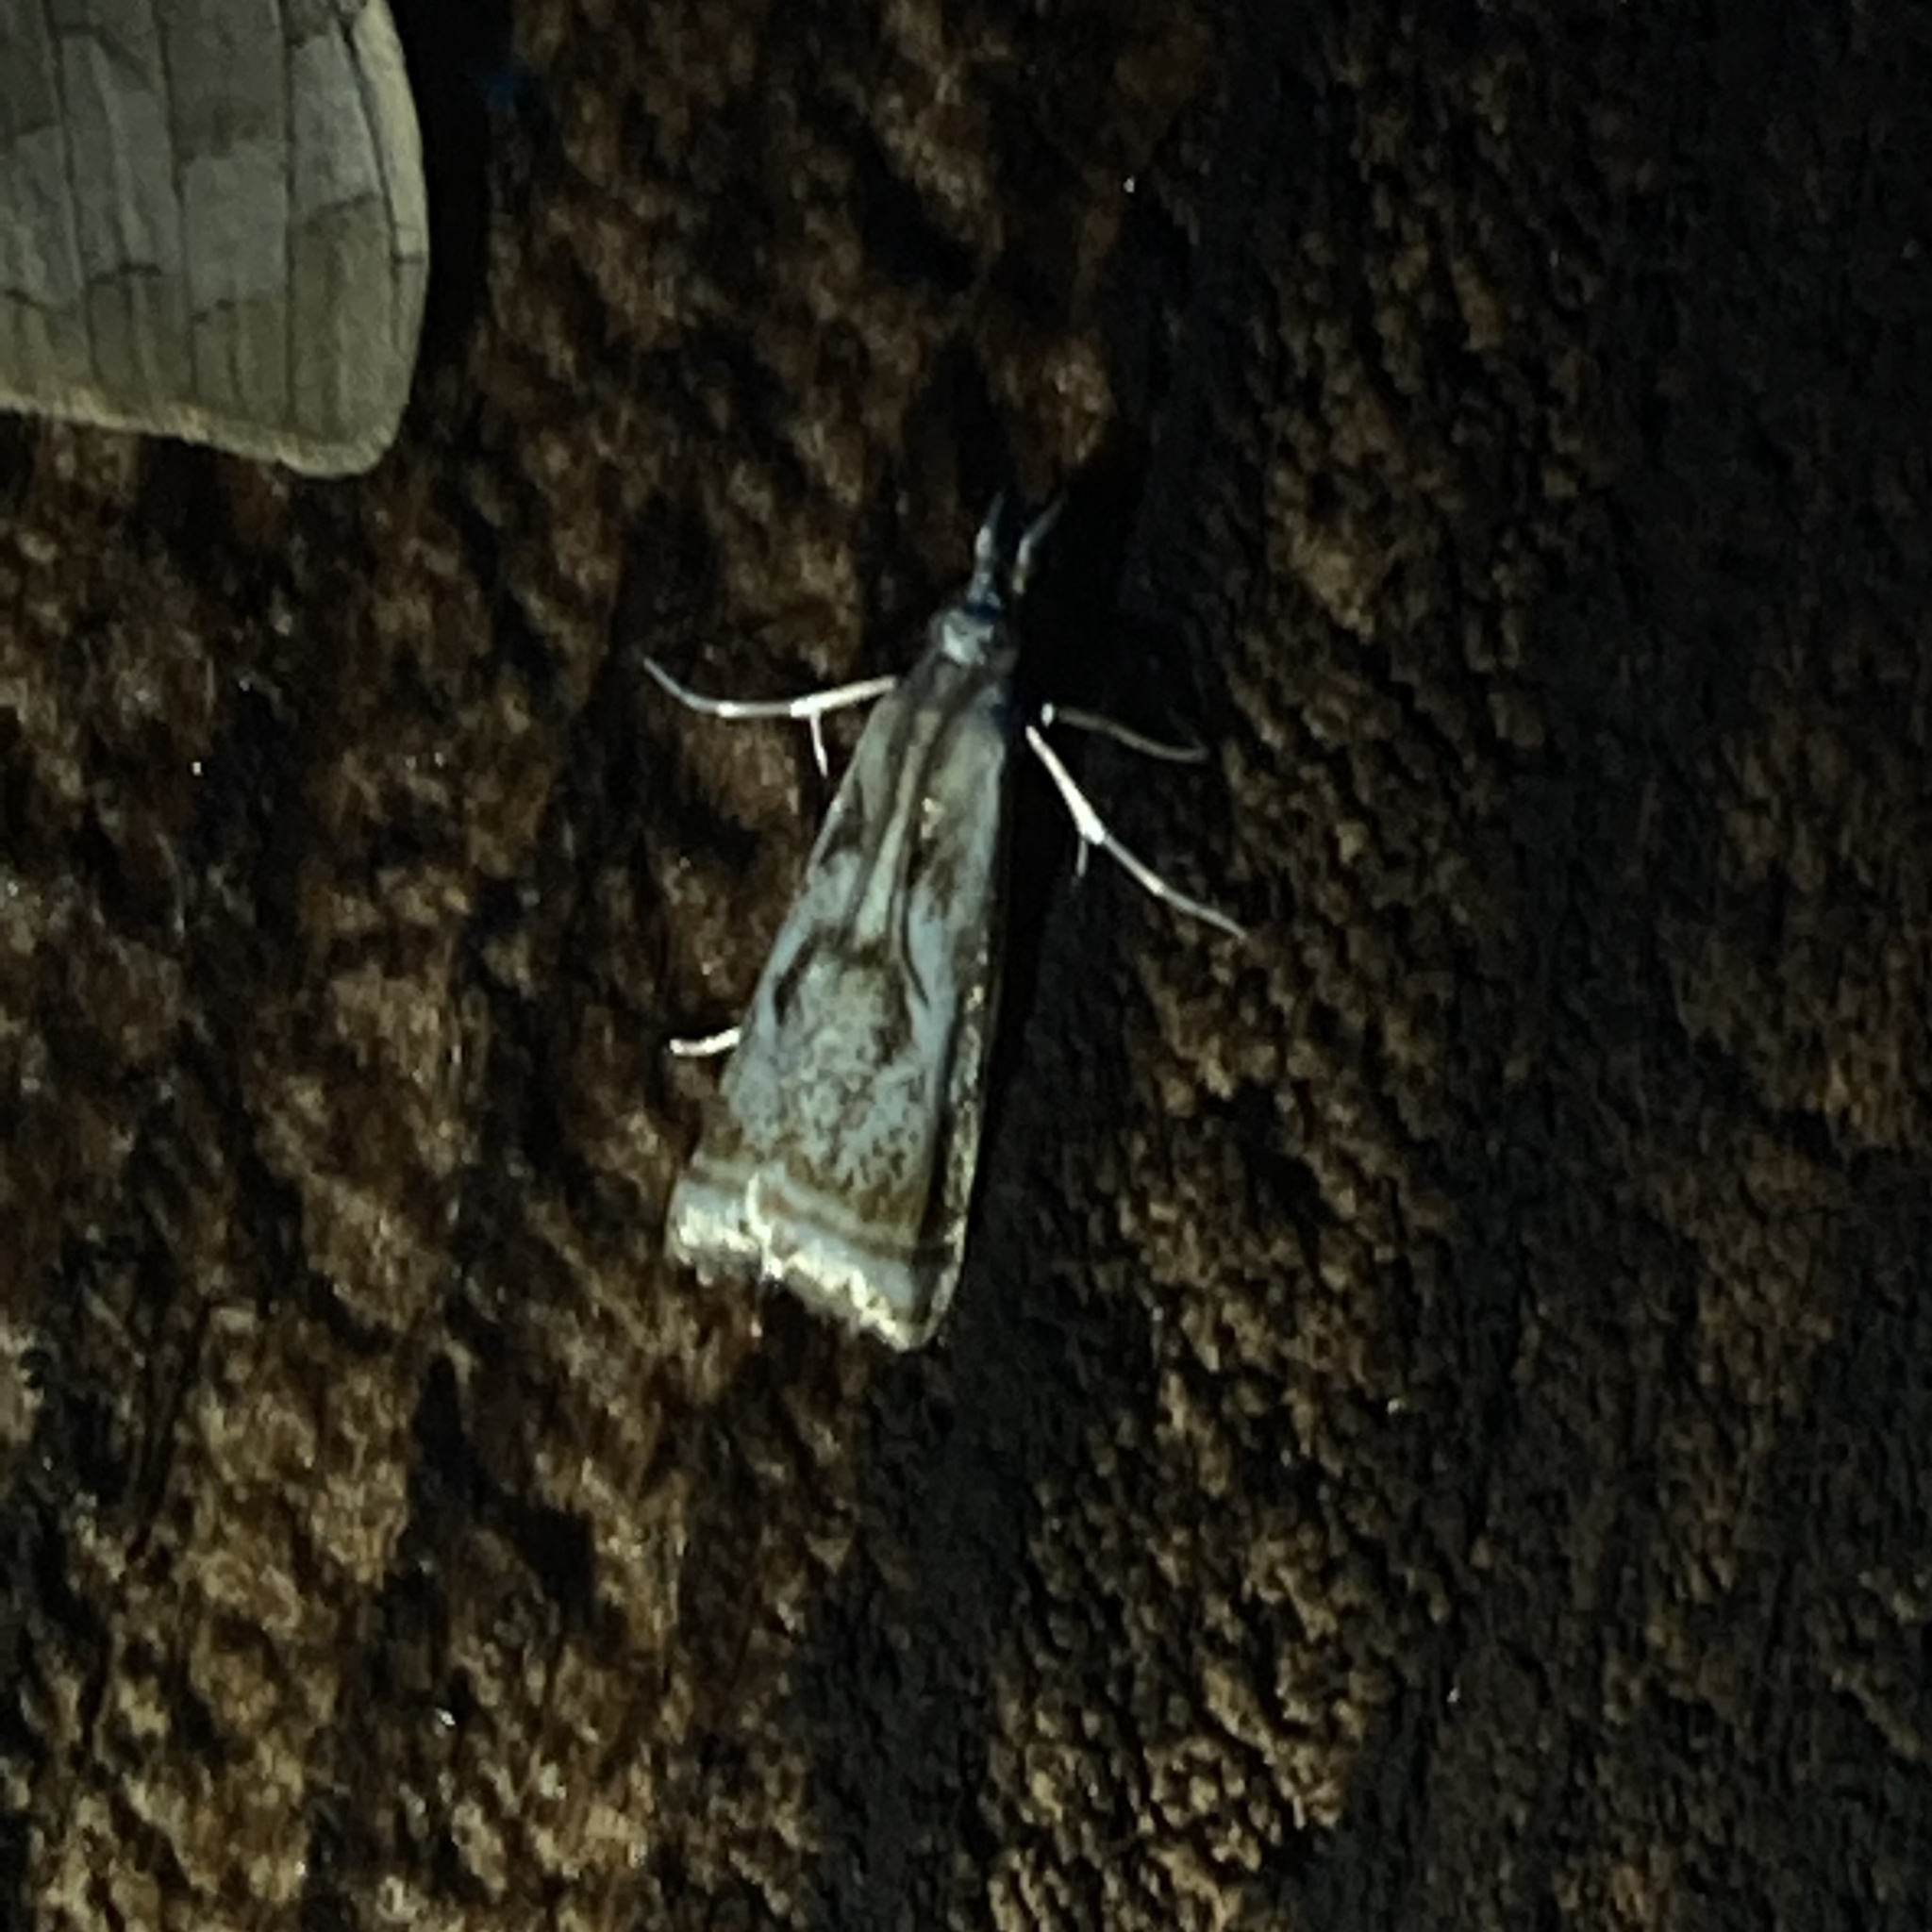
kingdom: Animalia
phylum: Arthropoda
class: Insecta
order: Lepidoptera
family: Crambidae
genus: Microcrambus
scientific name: Microcrambus elegans
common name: Elegant grass-veneer
